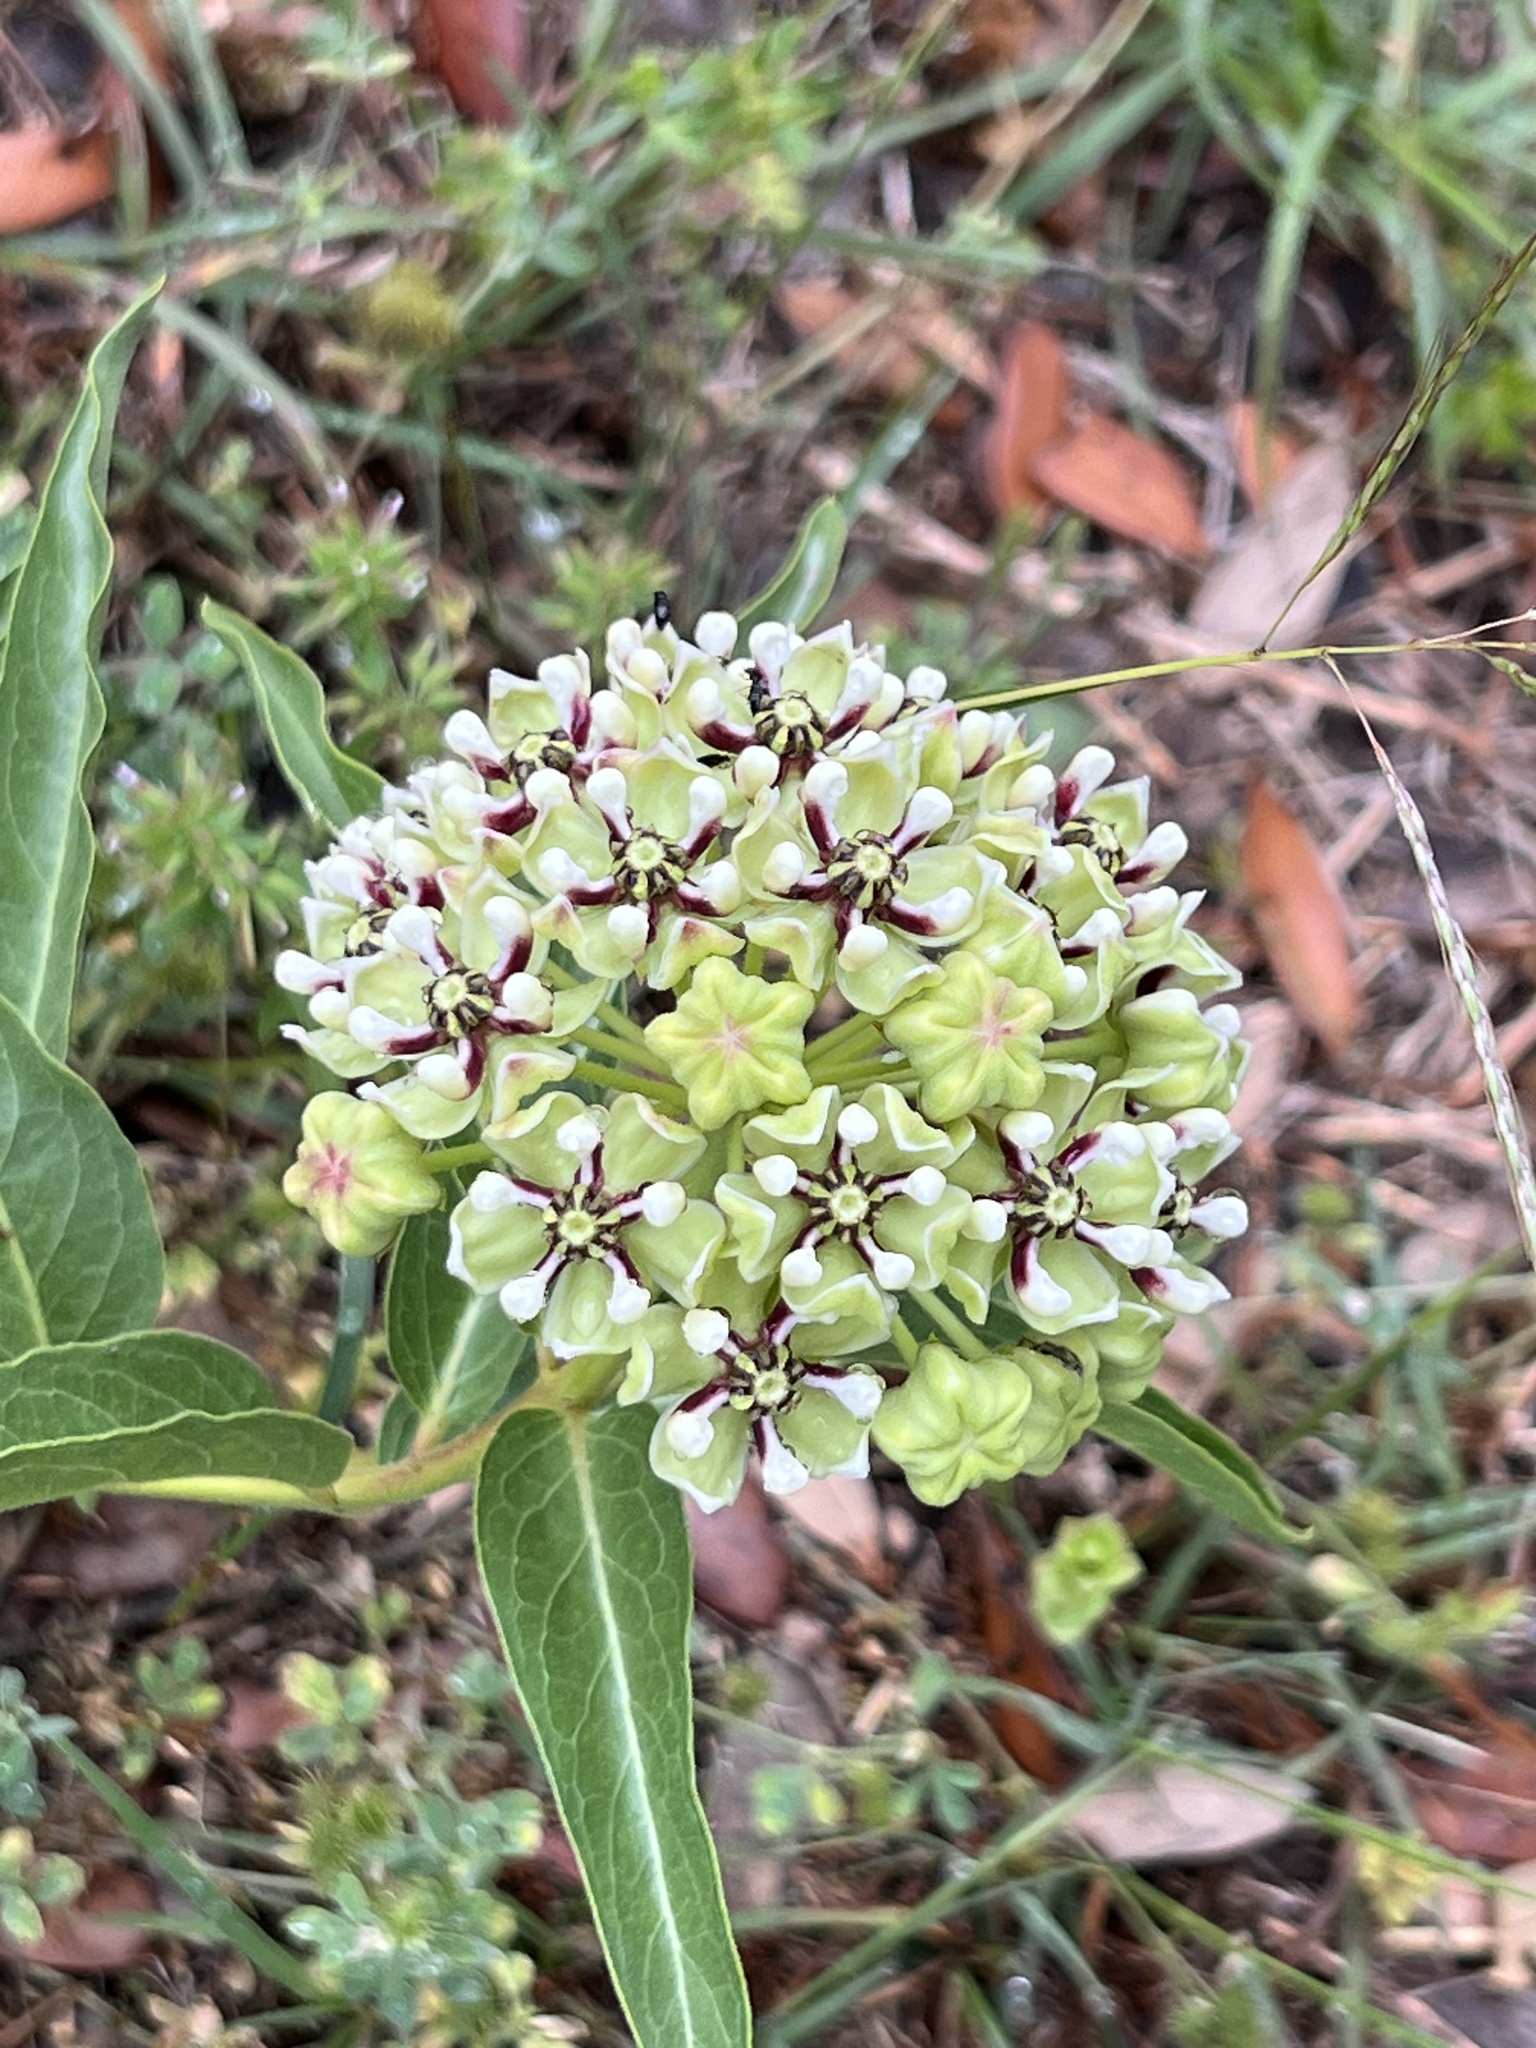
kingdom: Plantae
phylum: Tracheophyta
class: Magnoliopsida
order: Gentianales
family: Apocynaceae
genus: Asclepias
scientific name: Asclepias asperula
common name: Antelope horns
